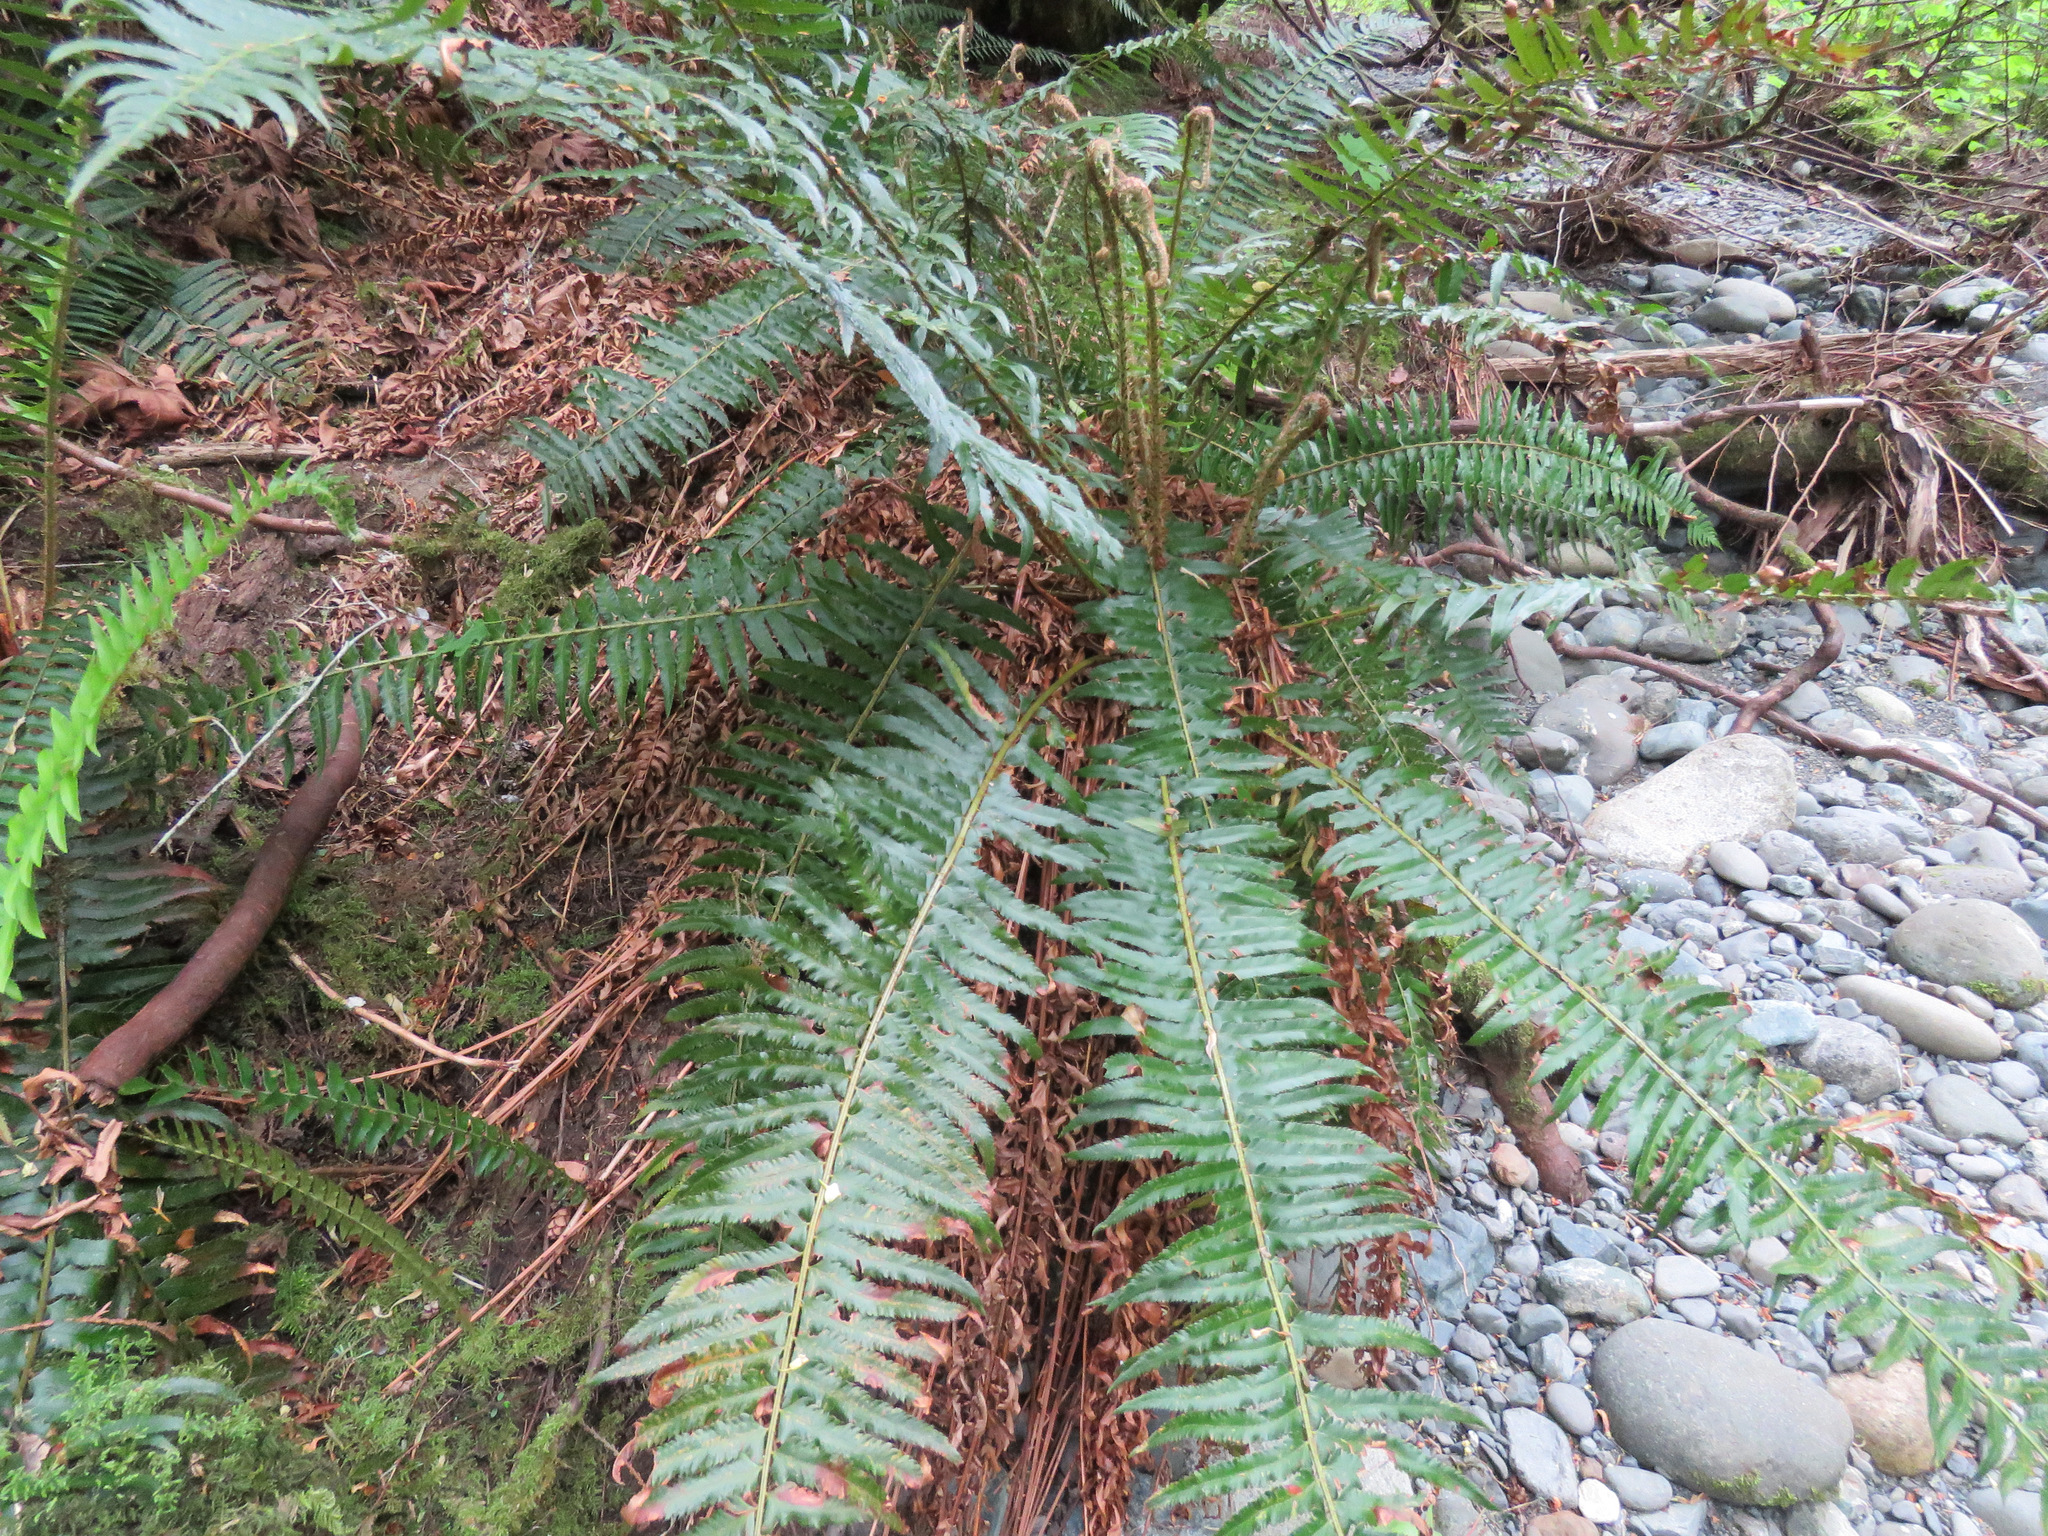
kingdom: Plantae
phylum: Tracheophyta
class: Polypodiopsida
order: Polypodiales
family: Dryopteridaceae
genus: Polystichum
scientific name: Polystichum munitum
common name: Western sword-fern
